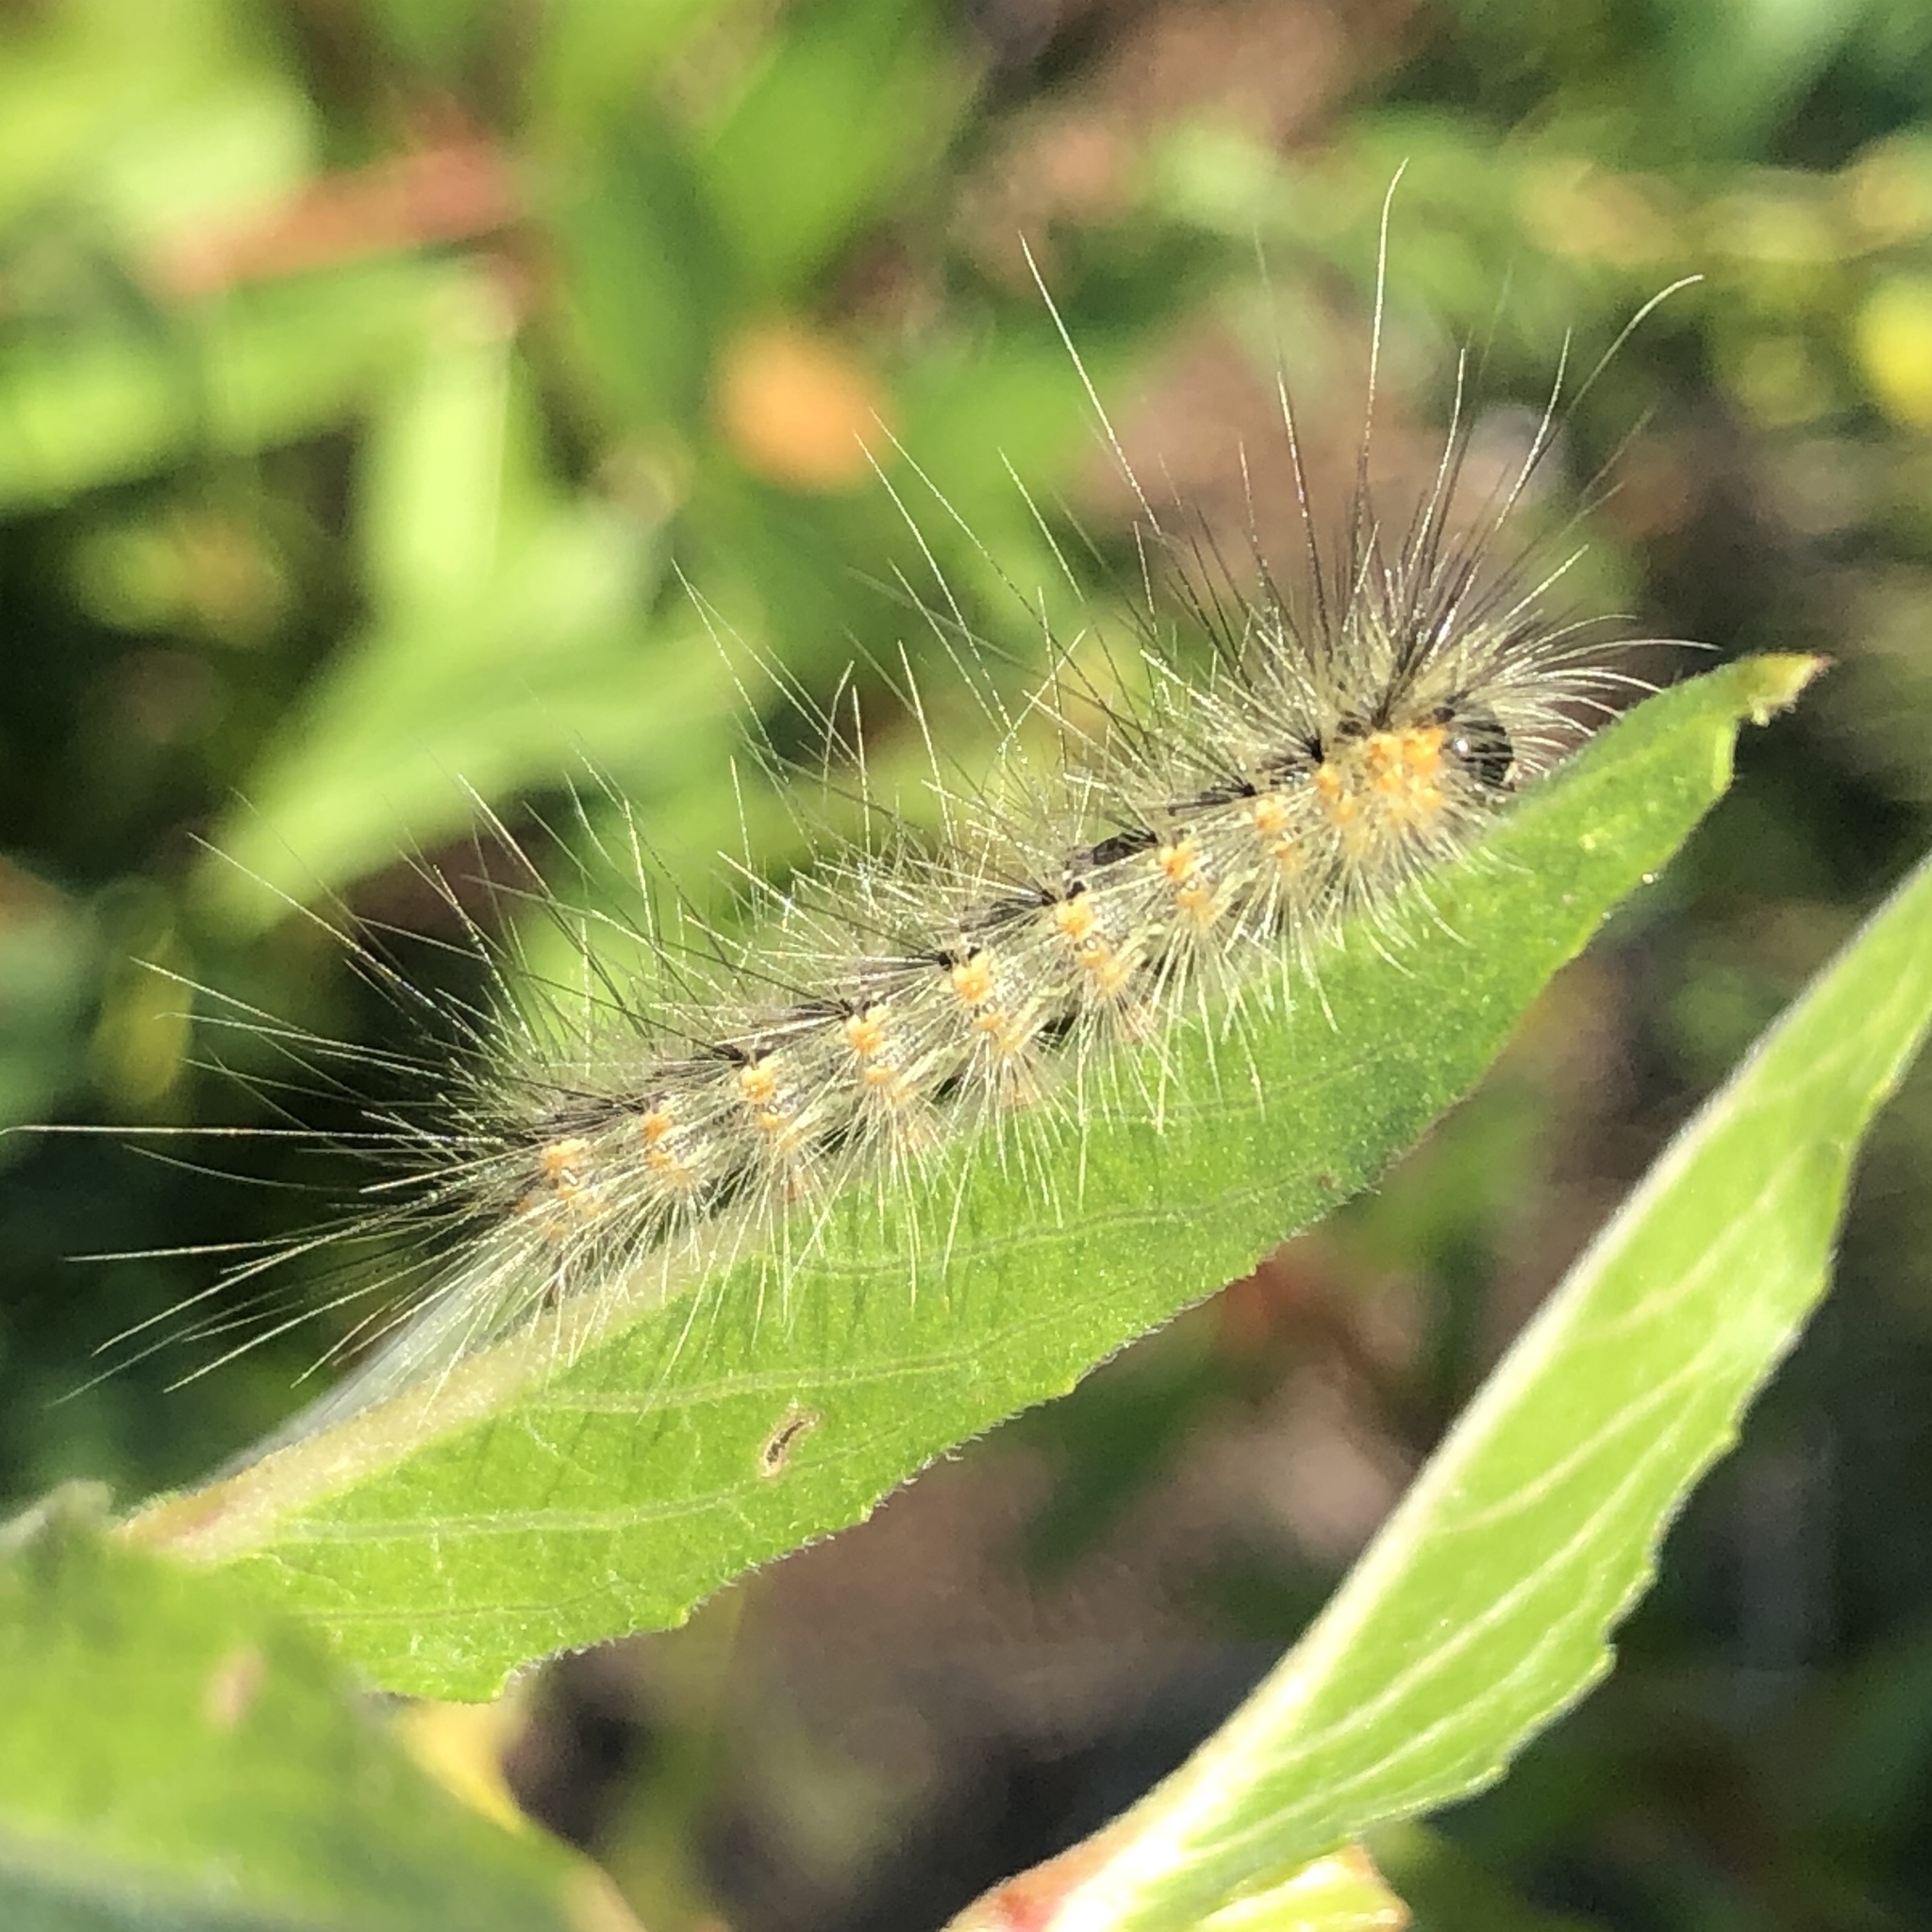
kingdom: Animalia
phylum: Arthropoda
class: Insecta
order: Lepidoptera
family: Erebidae
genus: Hyphantria
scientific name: Hyphantria cunea
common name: American white moth
